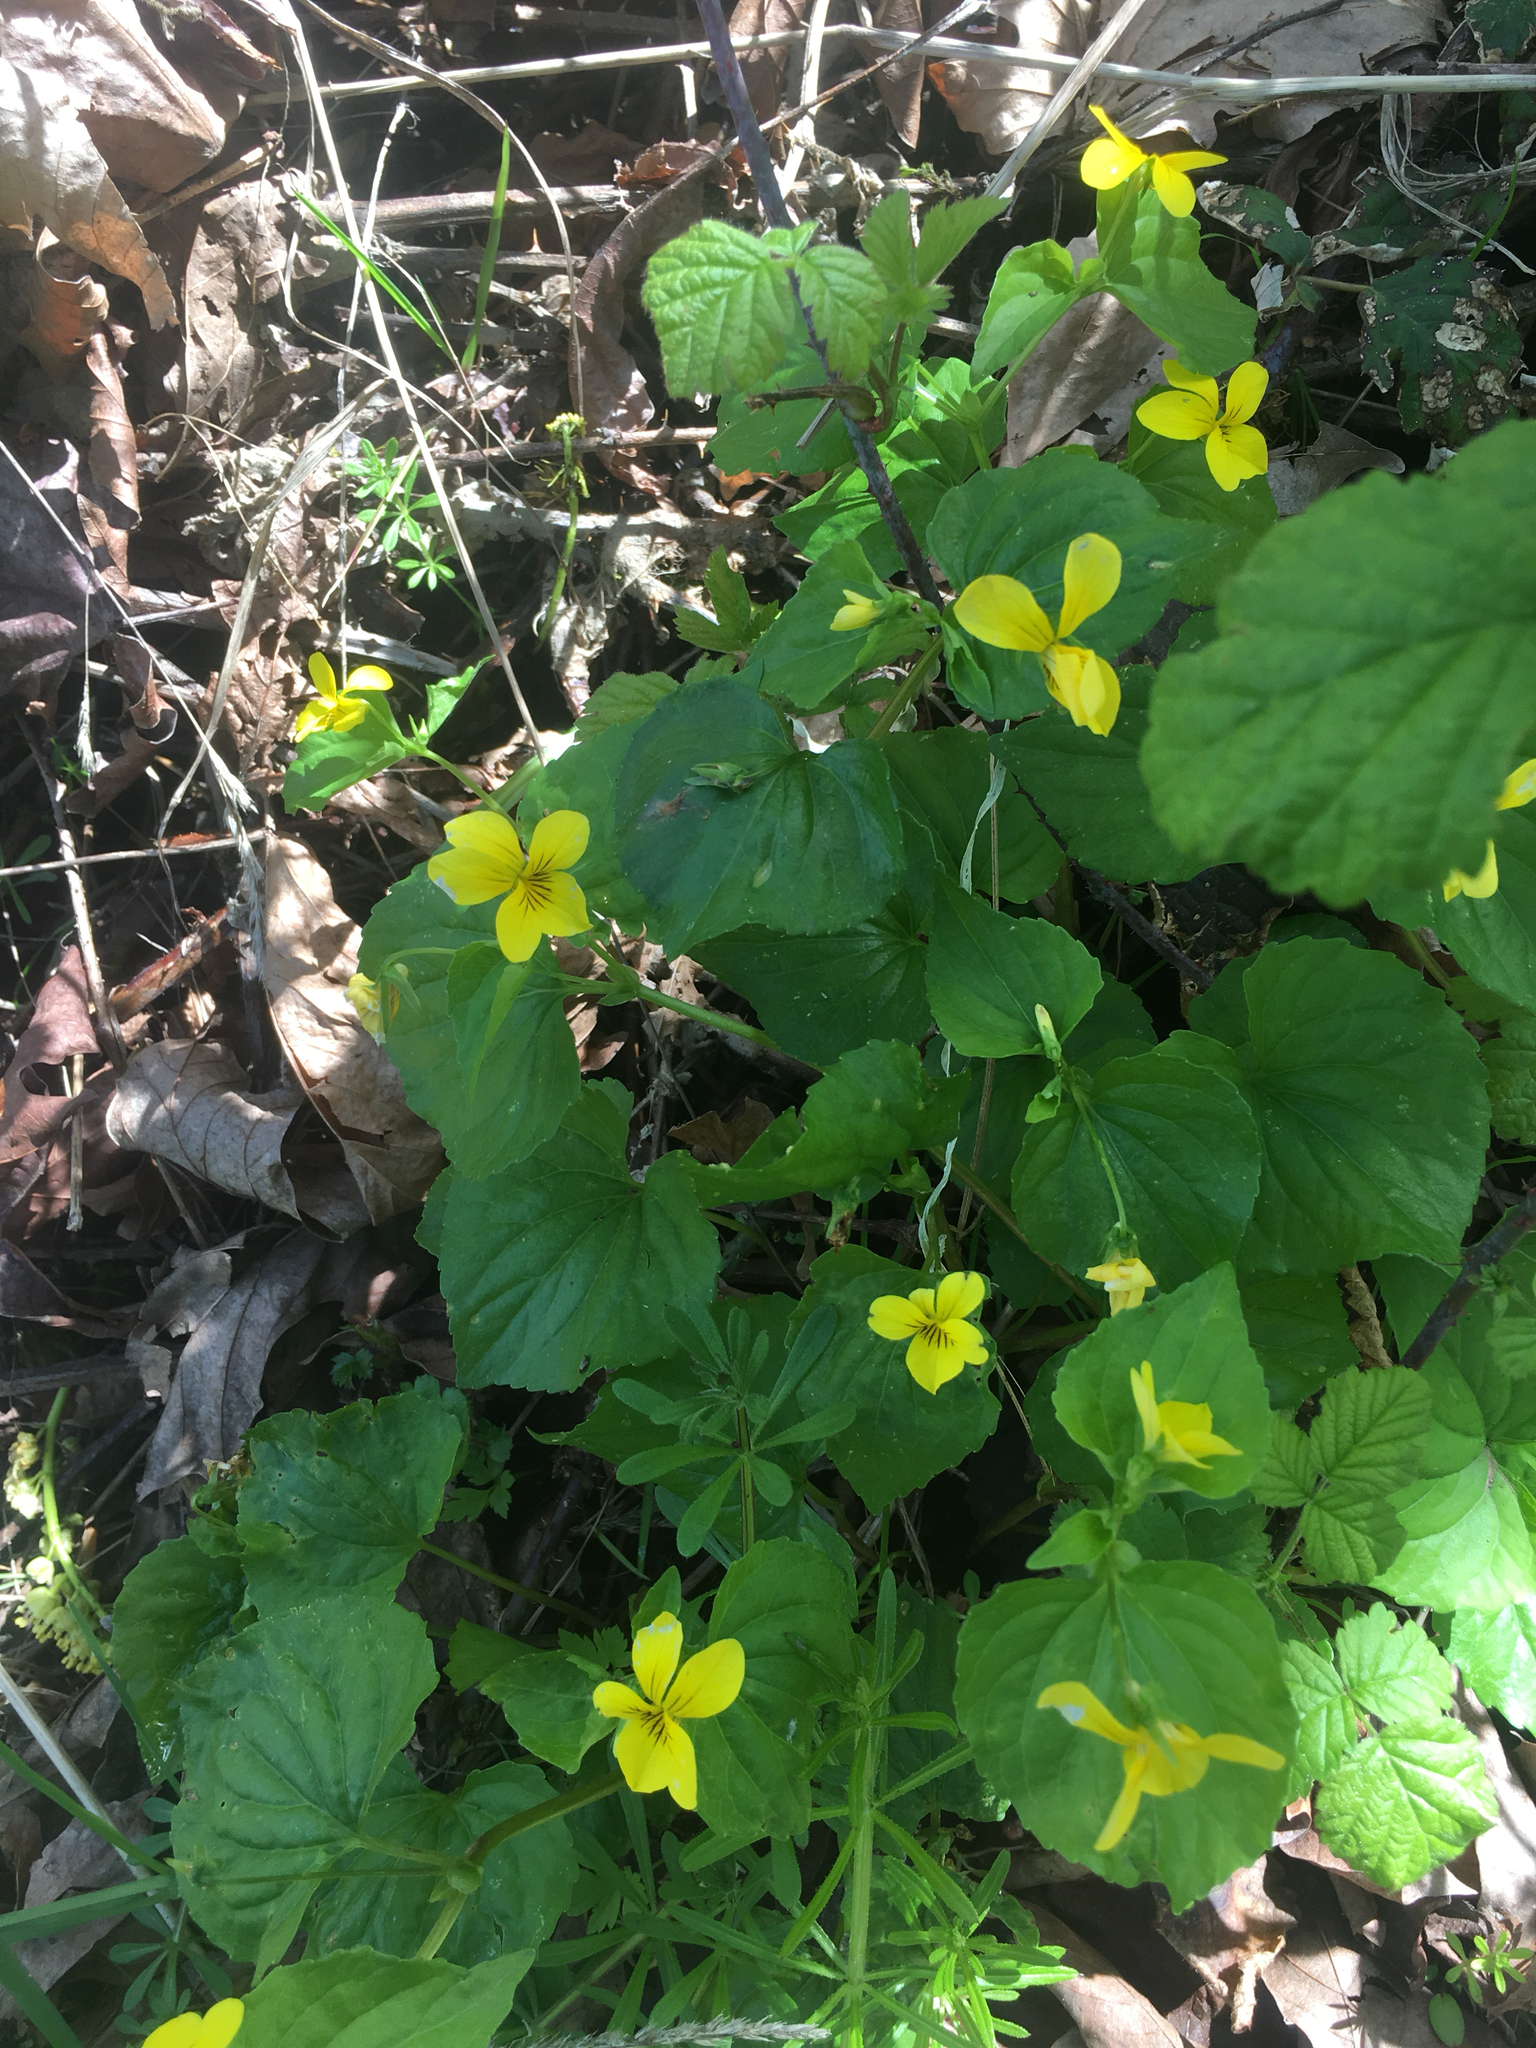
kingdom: Plantae
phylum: Tracheophyta
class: Magnoliopsida
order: Malpighiales
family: Violaceae
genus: Viola
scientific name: Viola glabella
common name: Stream violet
